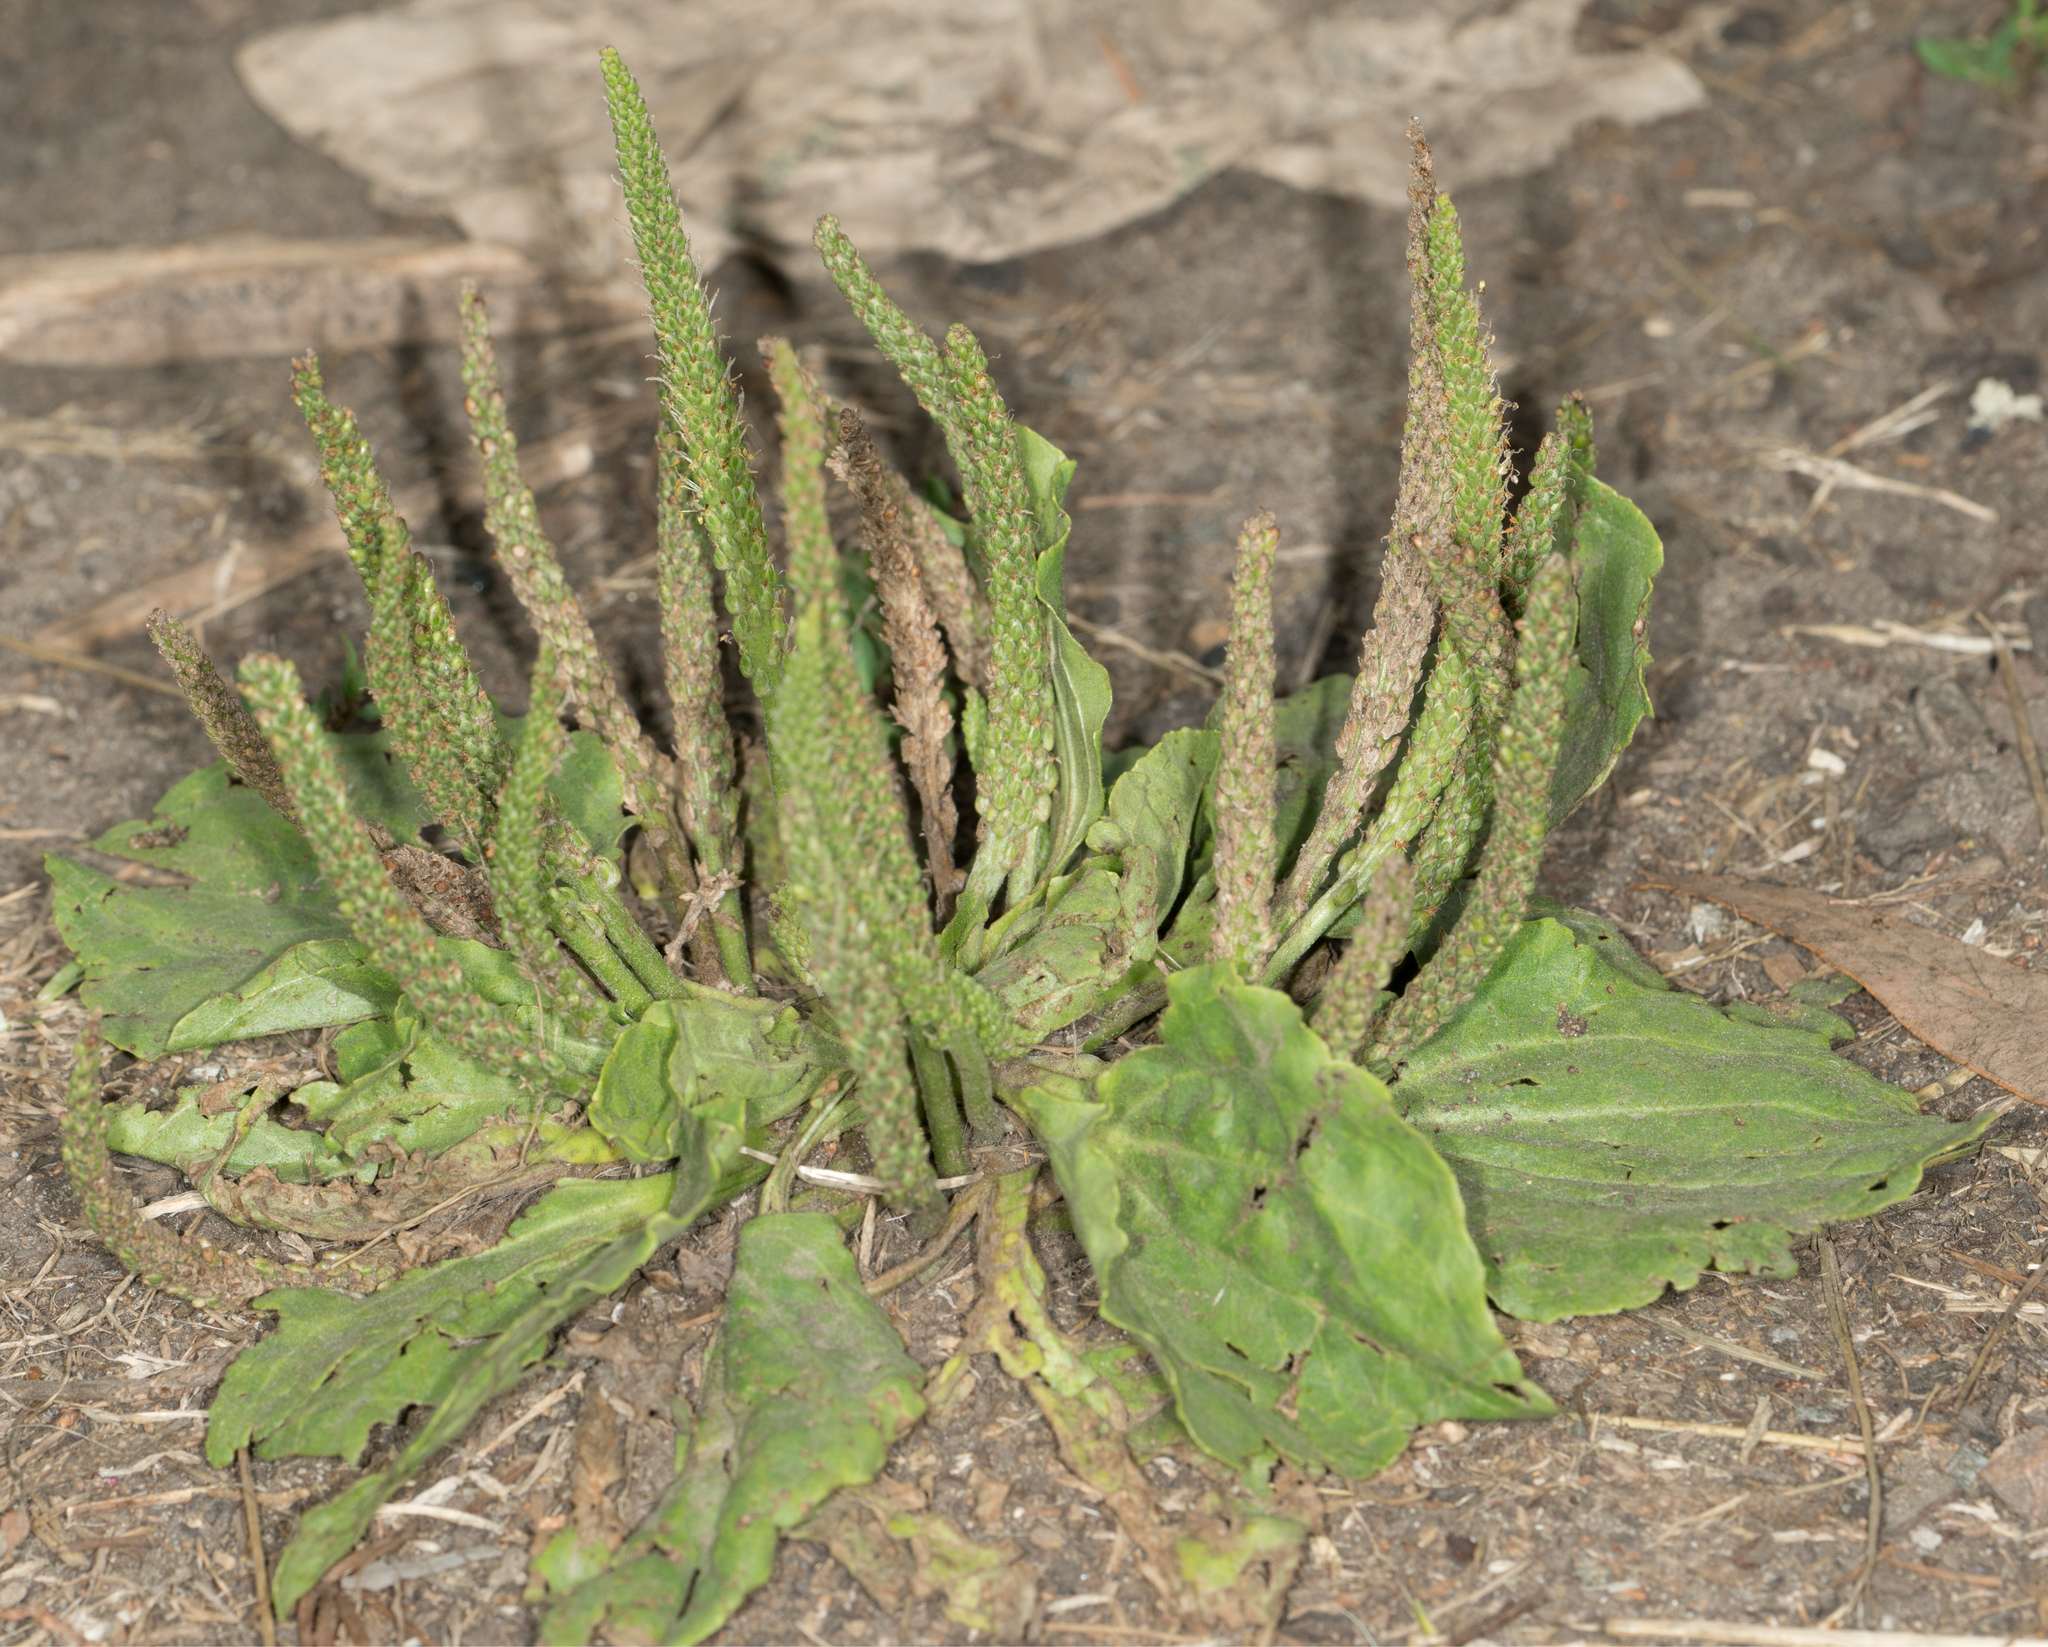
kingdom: Plantae
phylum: Tracheophyta
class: Magnoliopsida
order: Lamiales
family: Plantaginaceae
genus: Plantago
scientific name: Plantago major
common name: Common plantain
